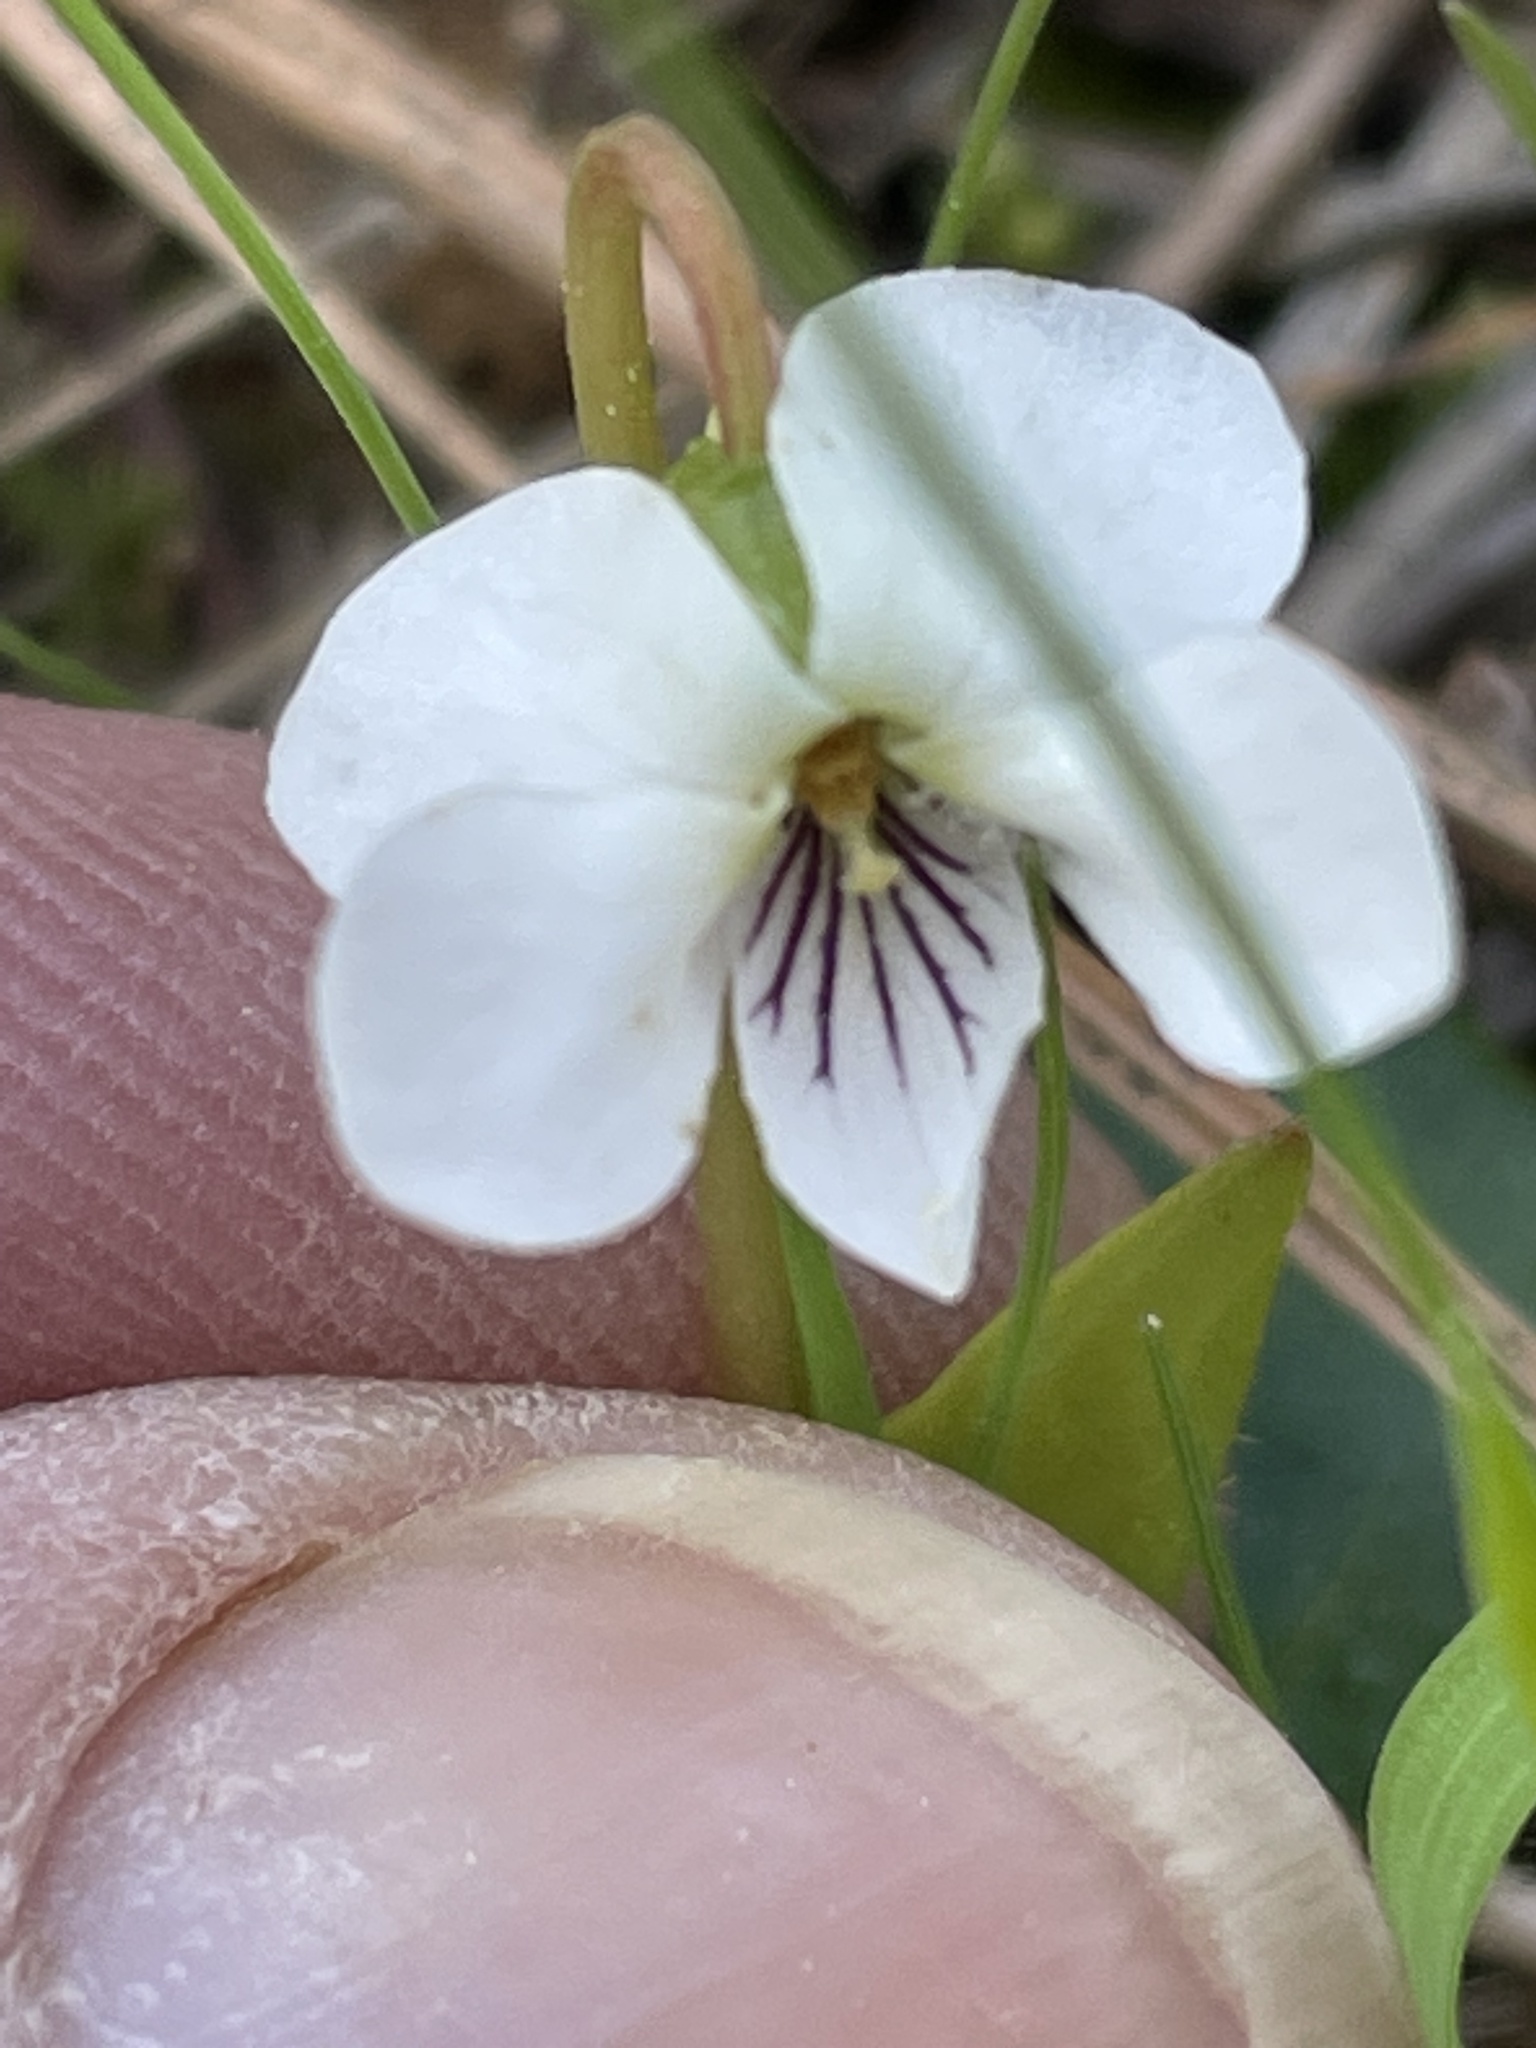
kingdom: Plantae
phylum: Tracheophyta
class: Magnoliopsida
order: Malpighiales
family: Violaceae
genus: Viola
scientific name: Viola primulifolia
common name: Primrose-leaf violet
